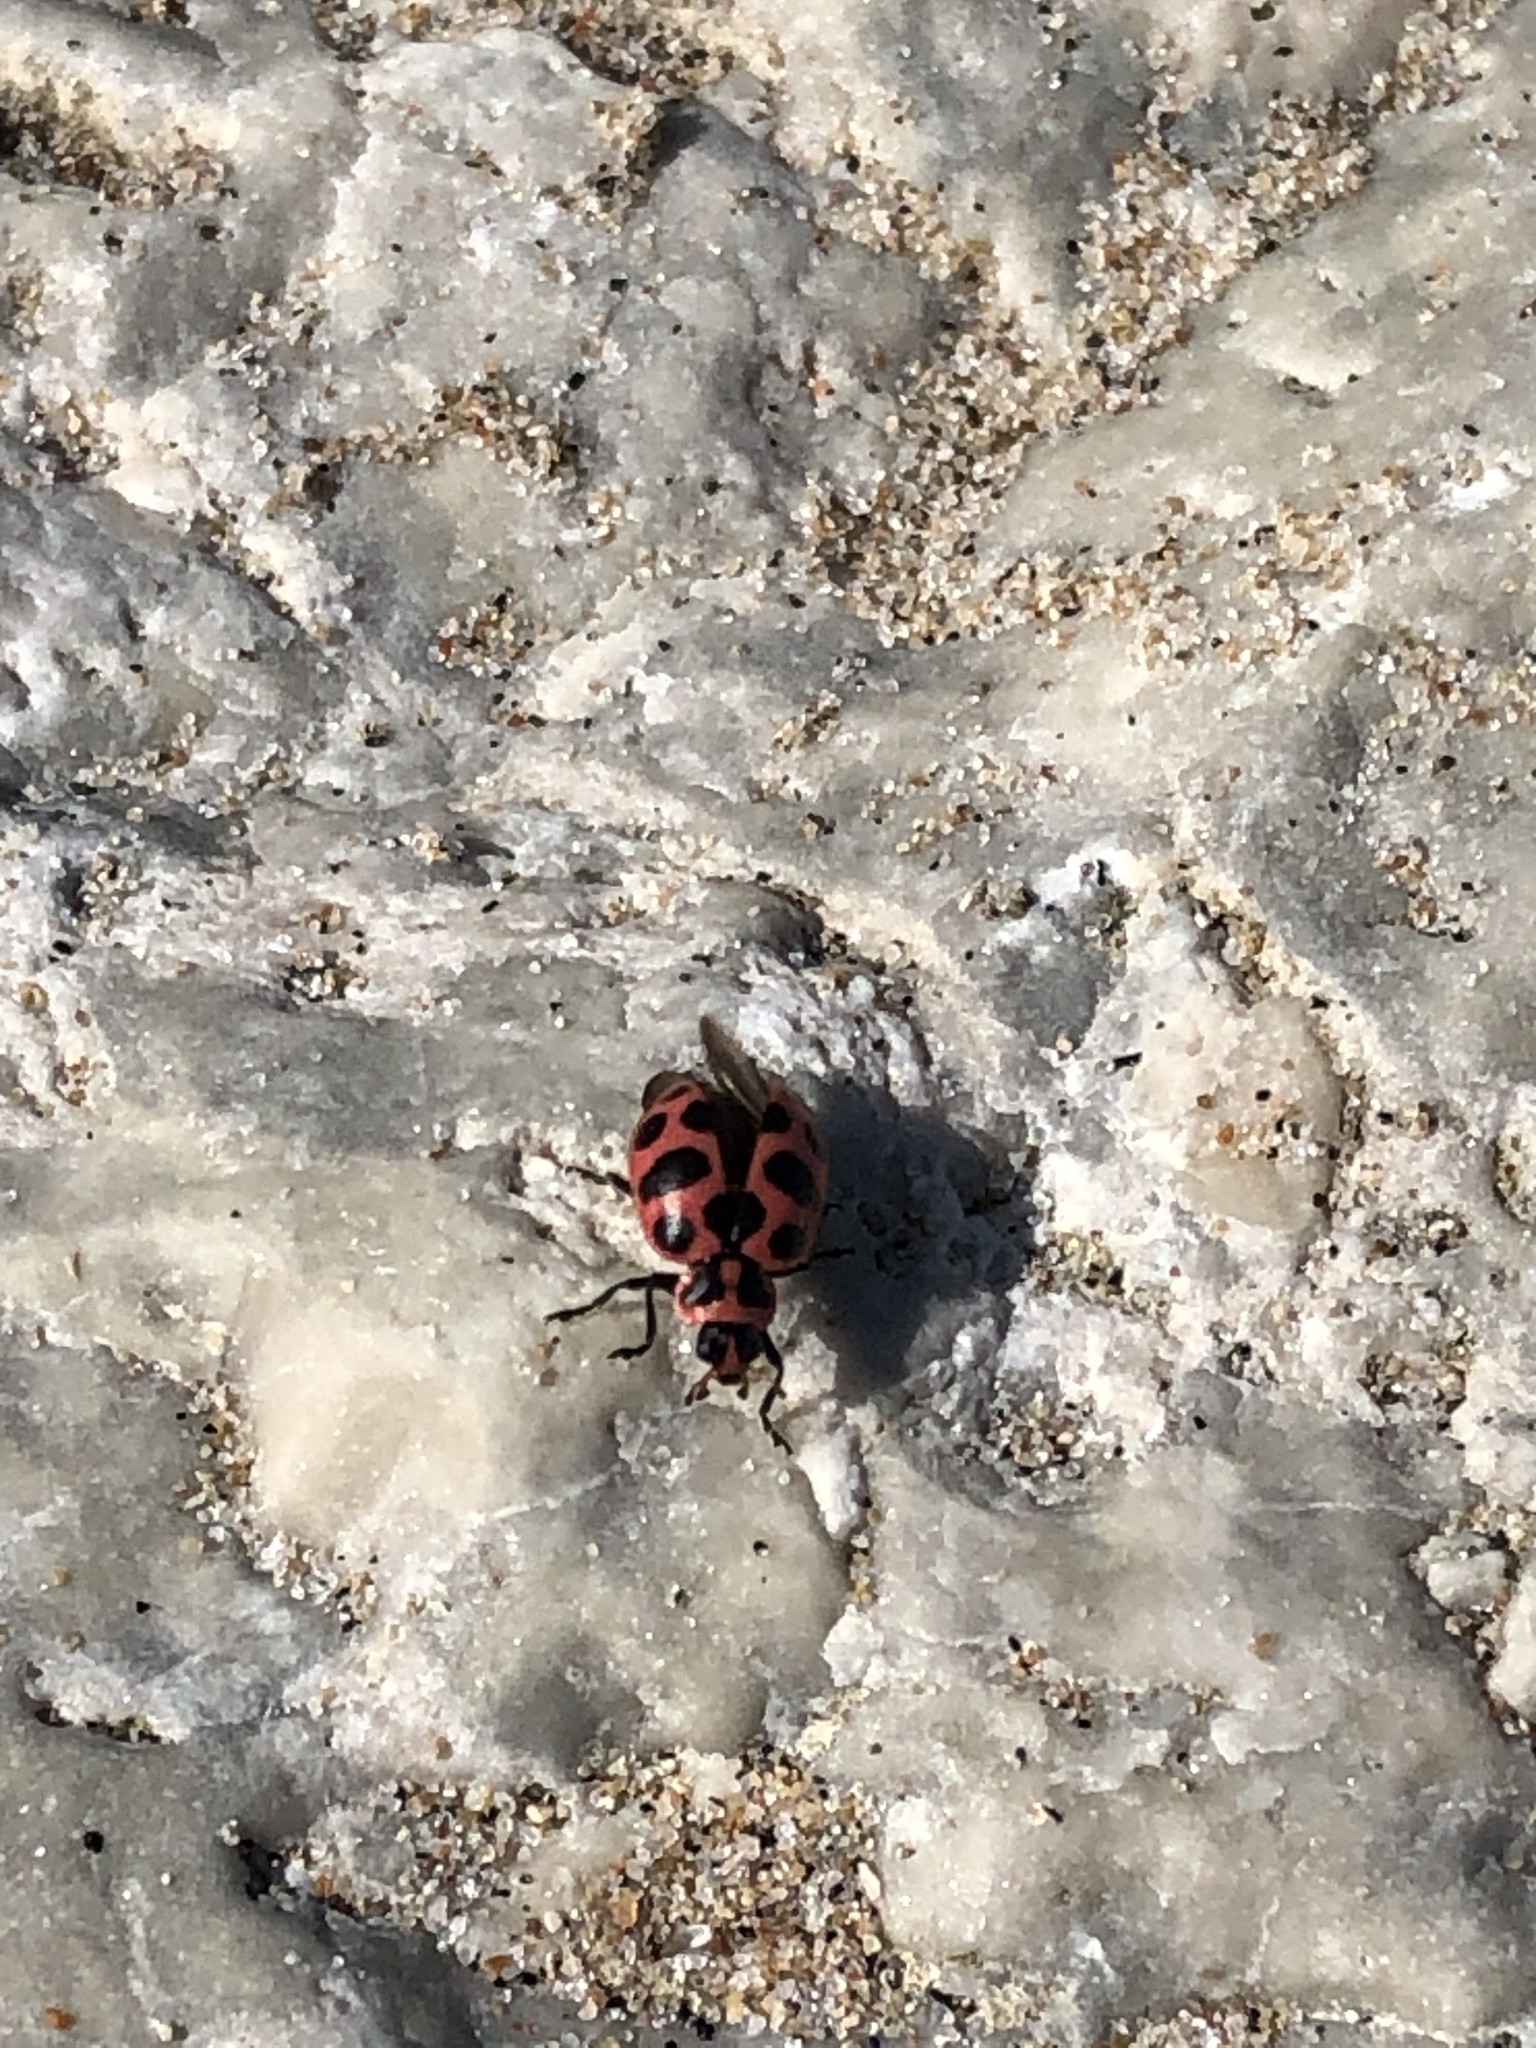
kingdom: Animalia
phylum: Arthropoda
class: Insecta
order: Coleoptera
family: Coccinellidae
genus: Coleomegilla
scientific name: Coleomegilla maculata
